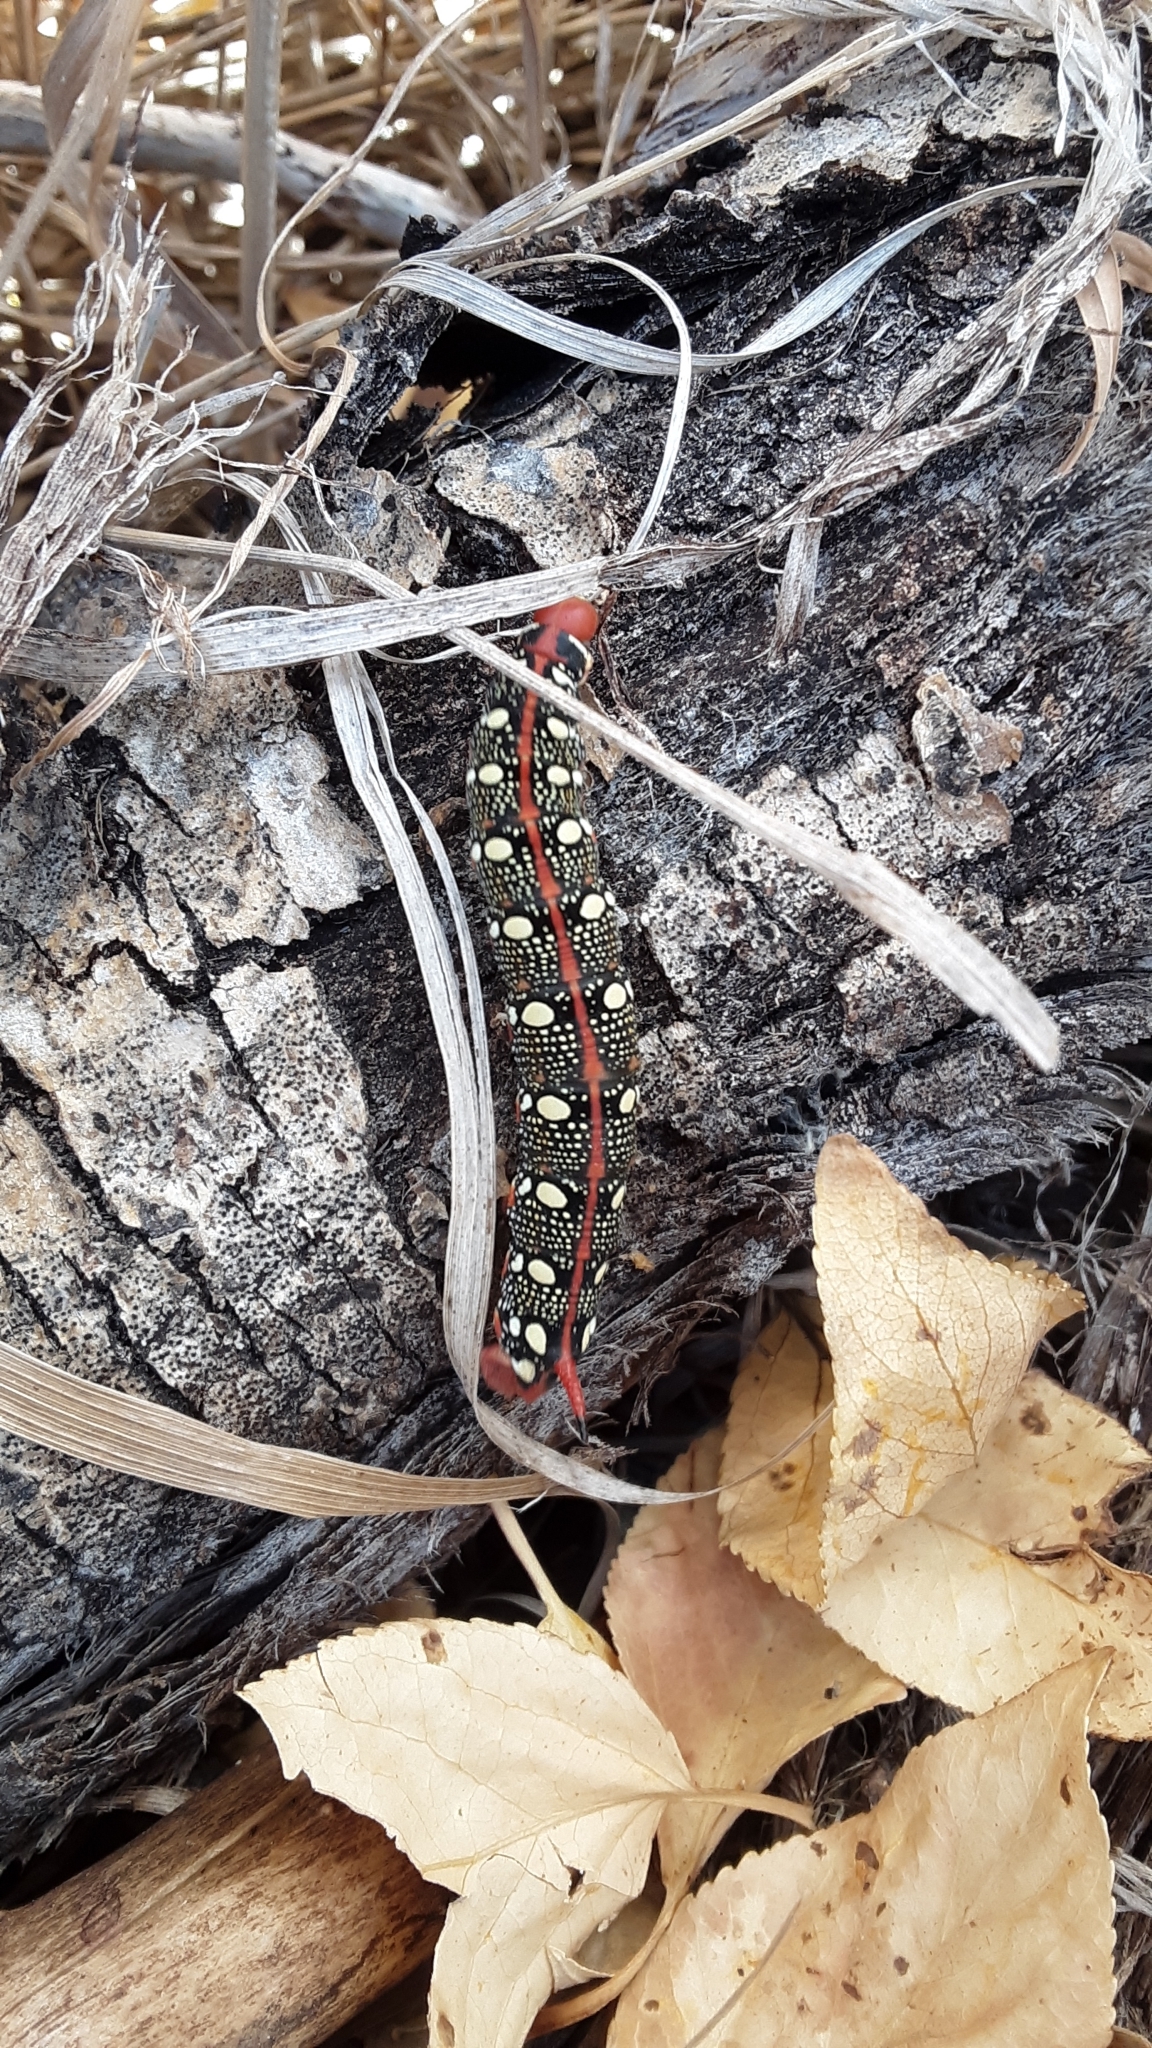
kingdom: Animalia
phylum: Arthropoda
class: Insecta
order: Lepidoptera
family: Sphingidae
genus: Hyles
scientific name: Hyles euphorbiae
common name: Spurge hawk-moth
